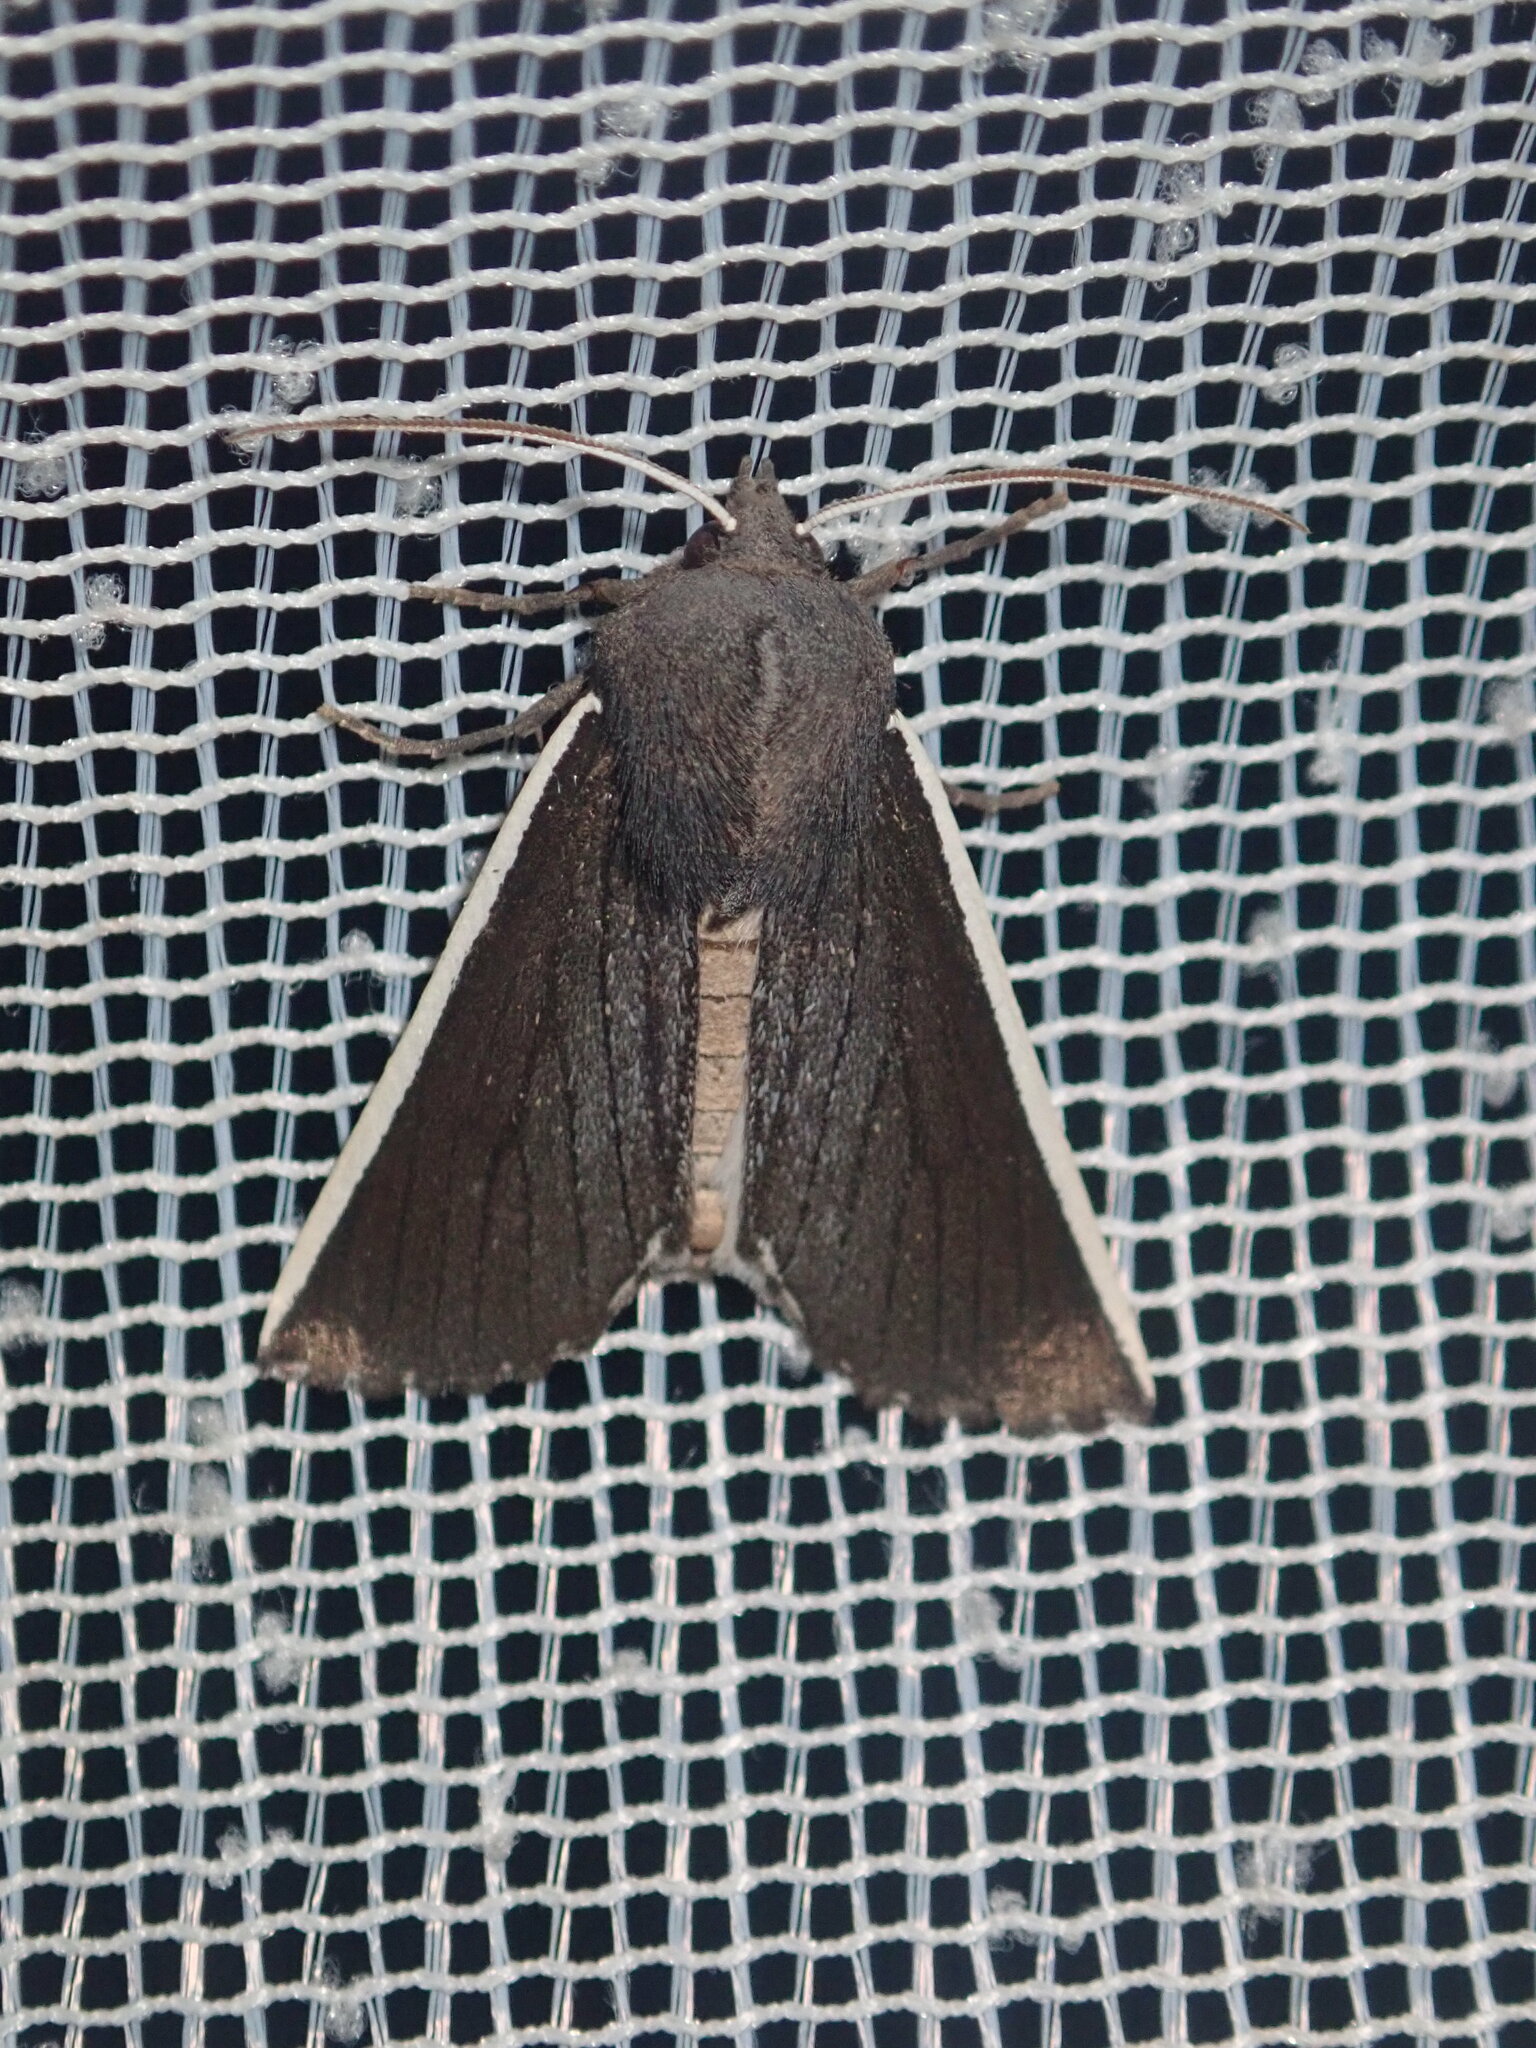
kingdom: Animalia
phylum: Arthropoda
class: Insecta
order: Lepidoptera
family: Geometridae
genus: Capusa
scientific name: Capusa chionopleura
